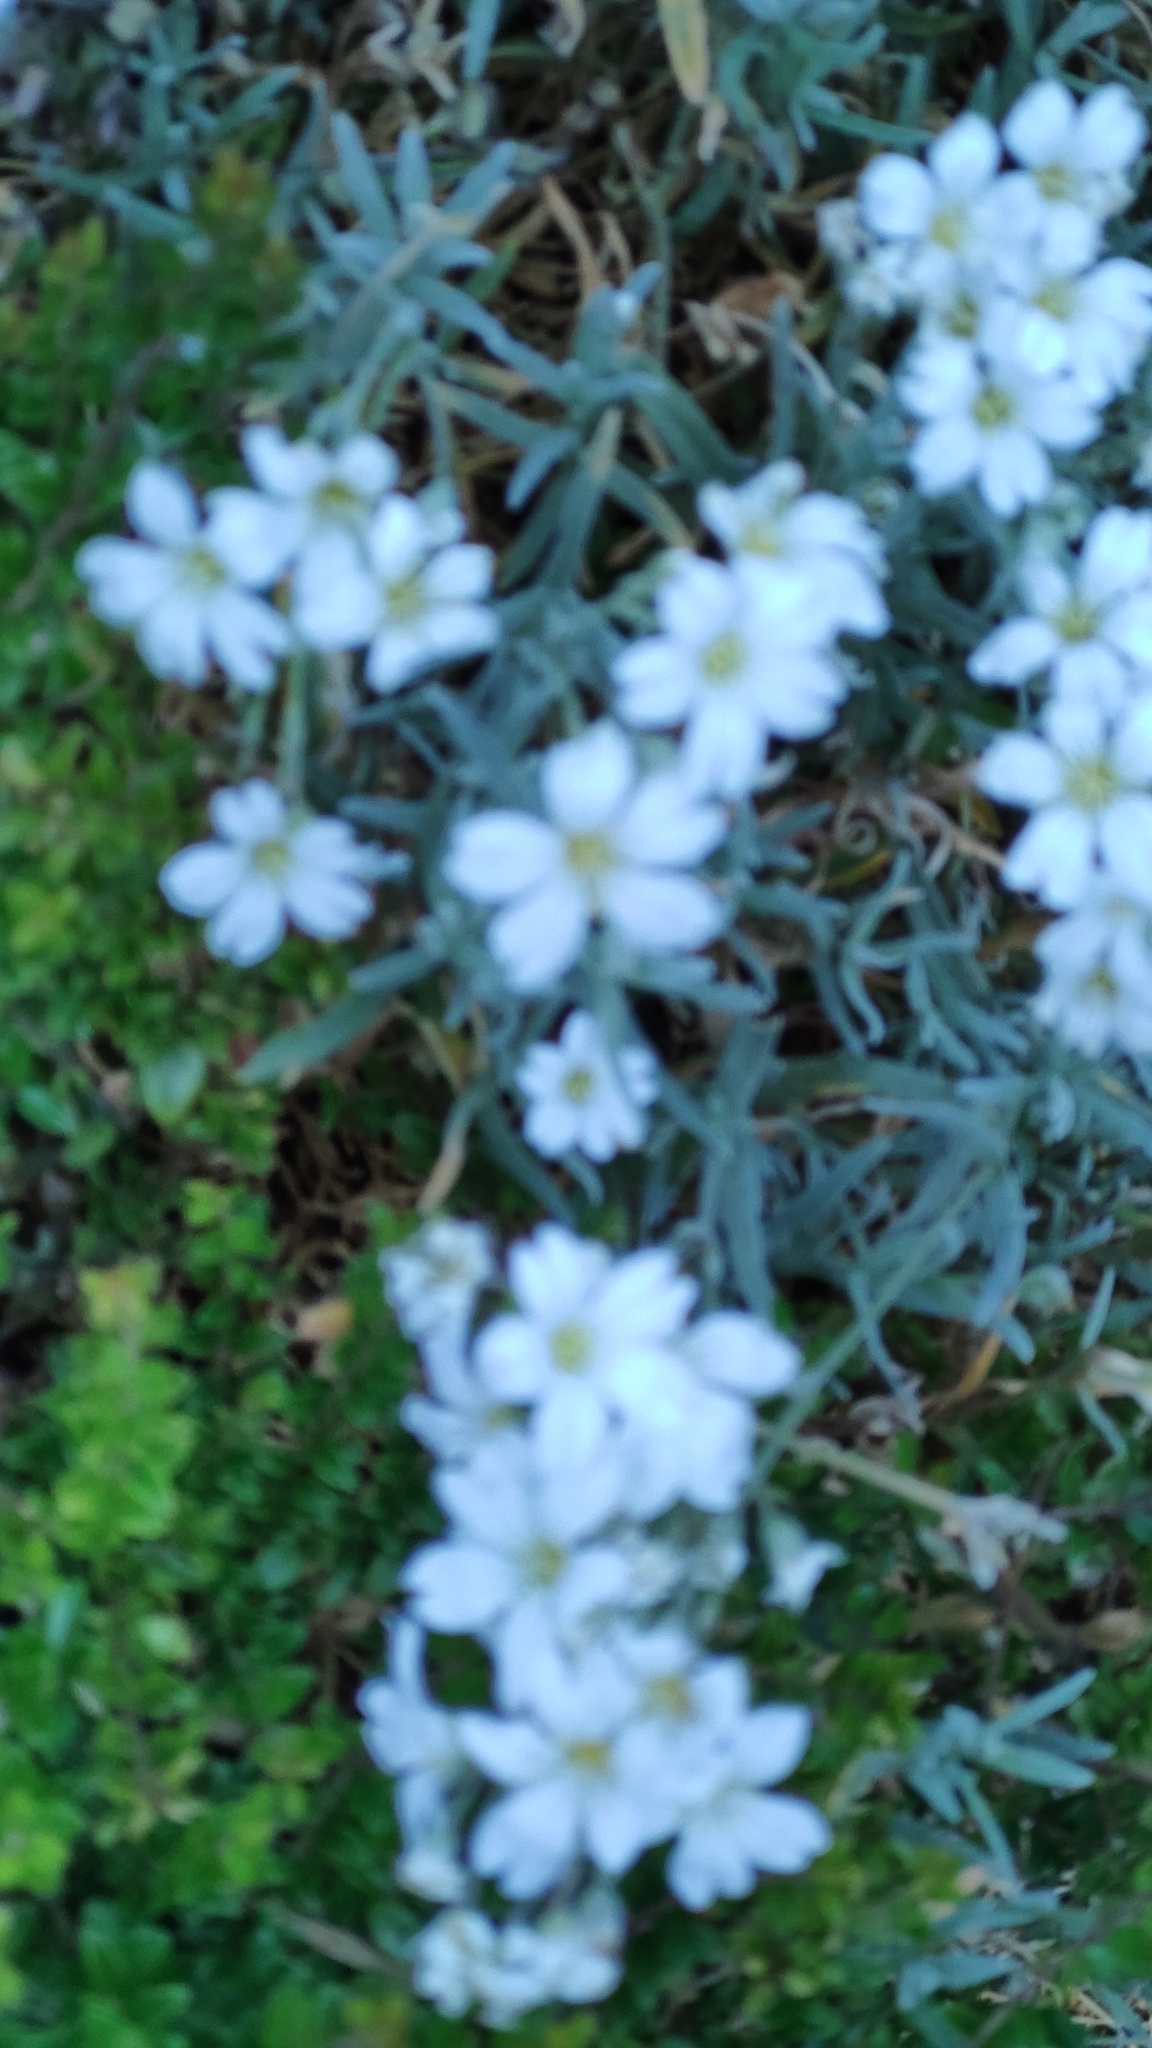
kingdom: Plantae
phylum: Tracheophyta
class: Magnoliopsida
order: Caryophyllales
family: Caryophyllaceae
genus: Cerastium
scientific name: Cerastium tomentosum
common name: Snow-in-summer
